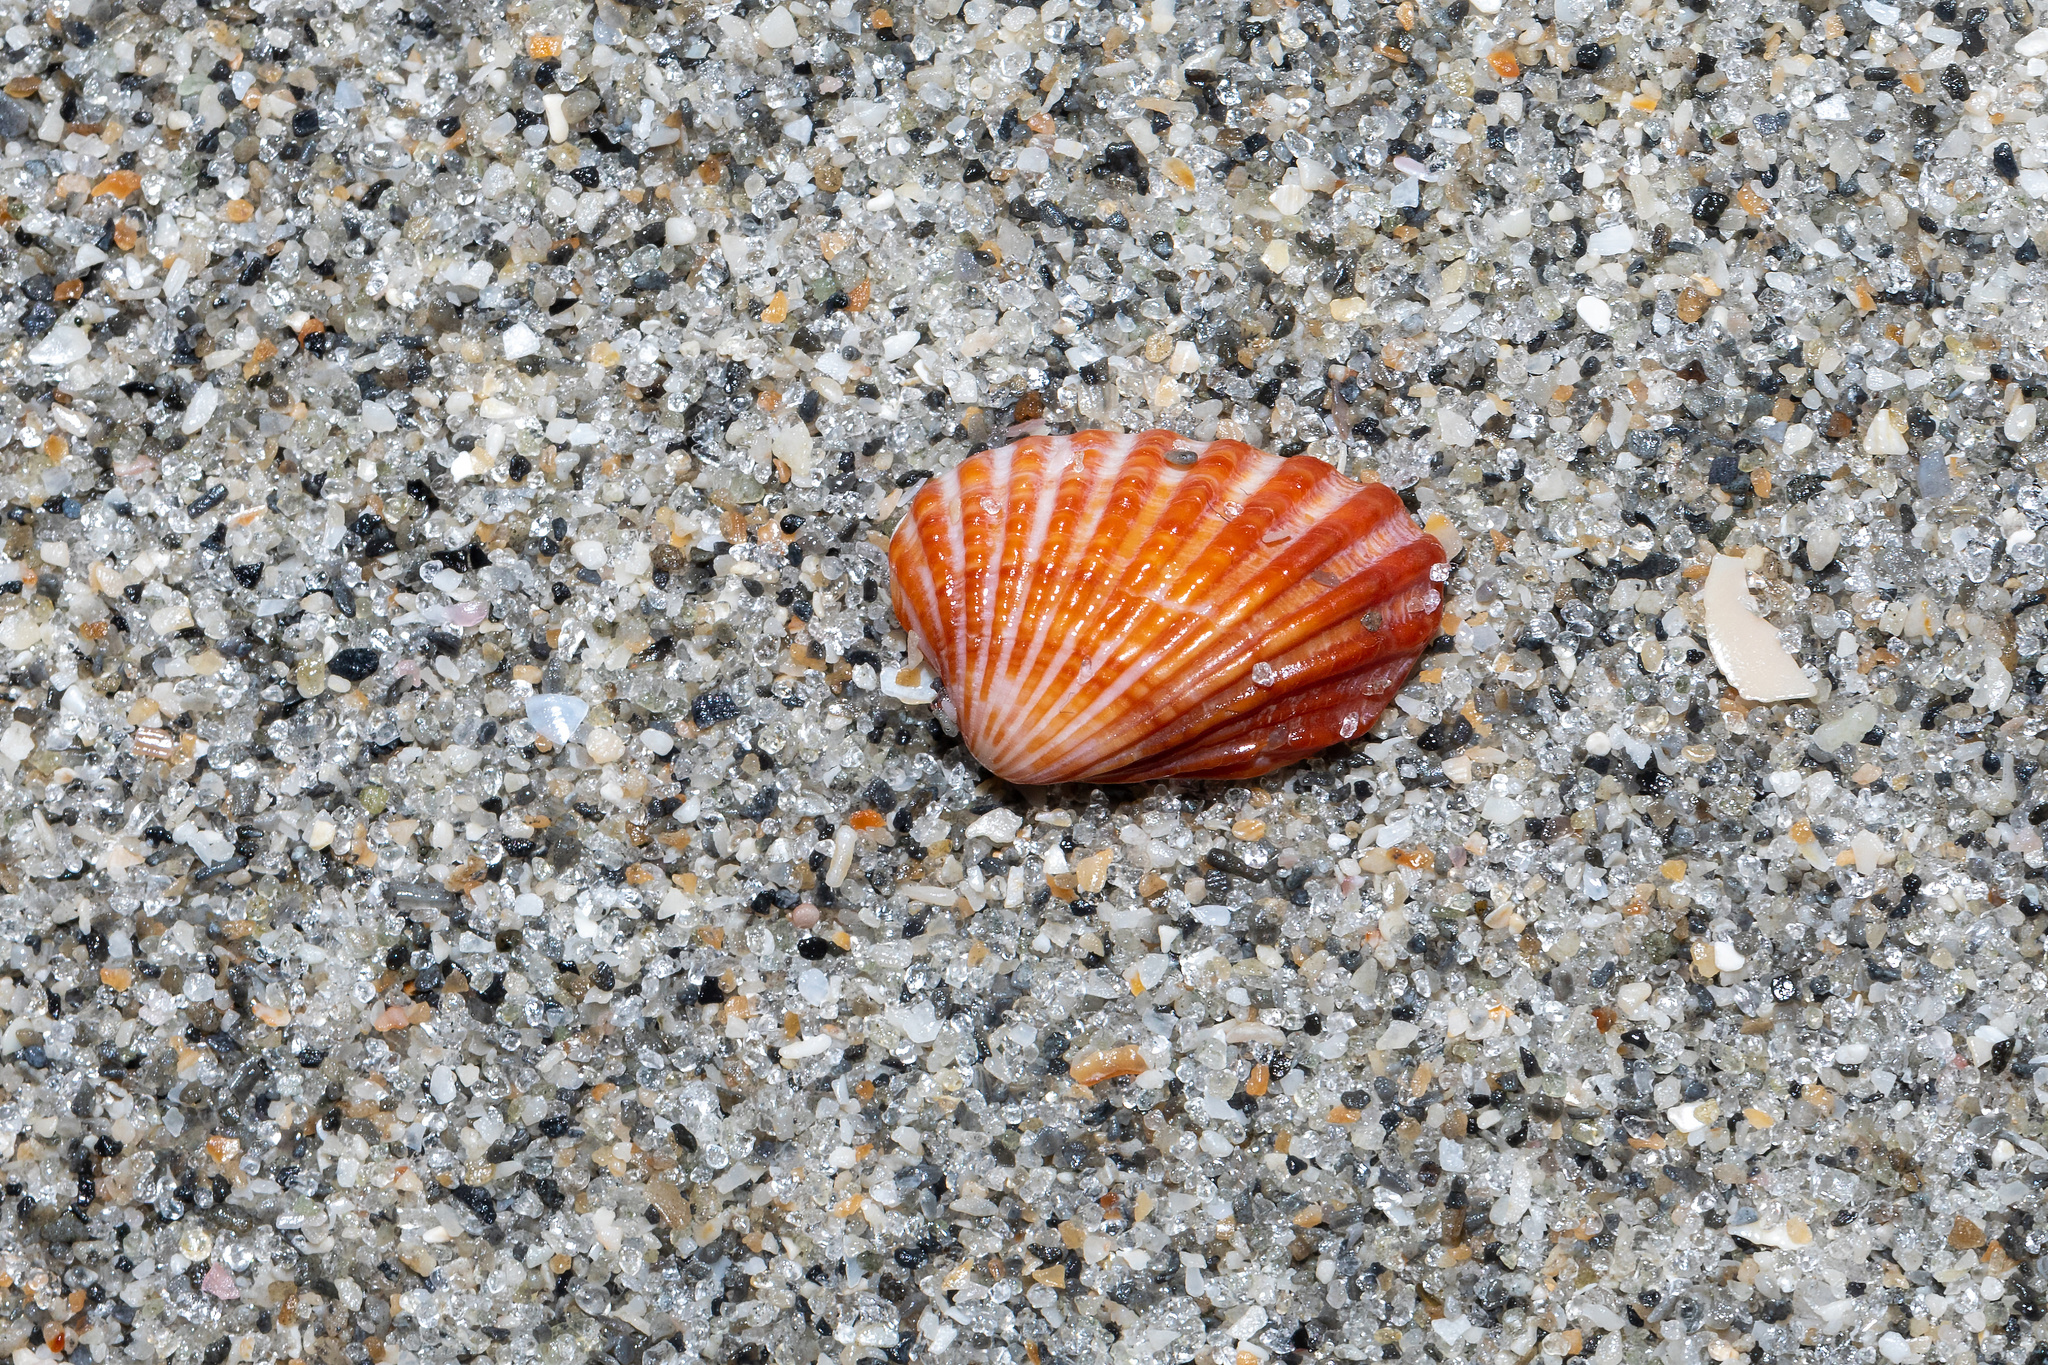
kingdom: Animalia
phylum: Mollusca
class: Bivalvia
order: Carditida
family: Carditidae
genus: Cardites
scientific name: Cardites floridanus
